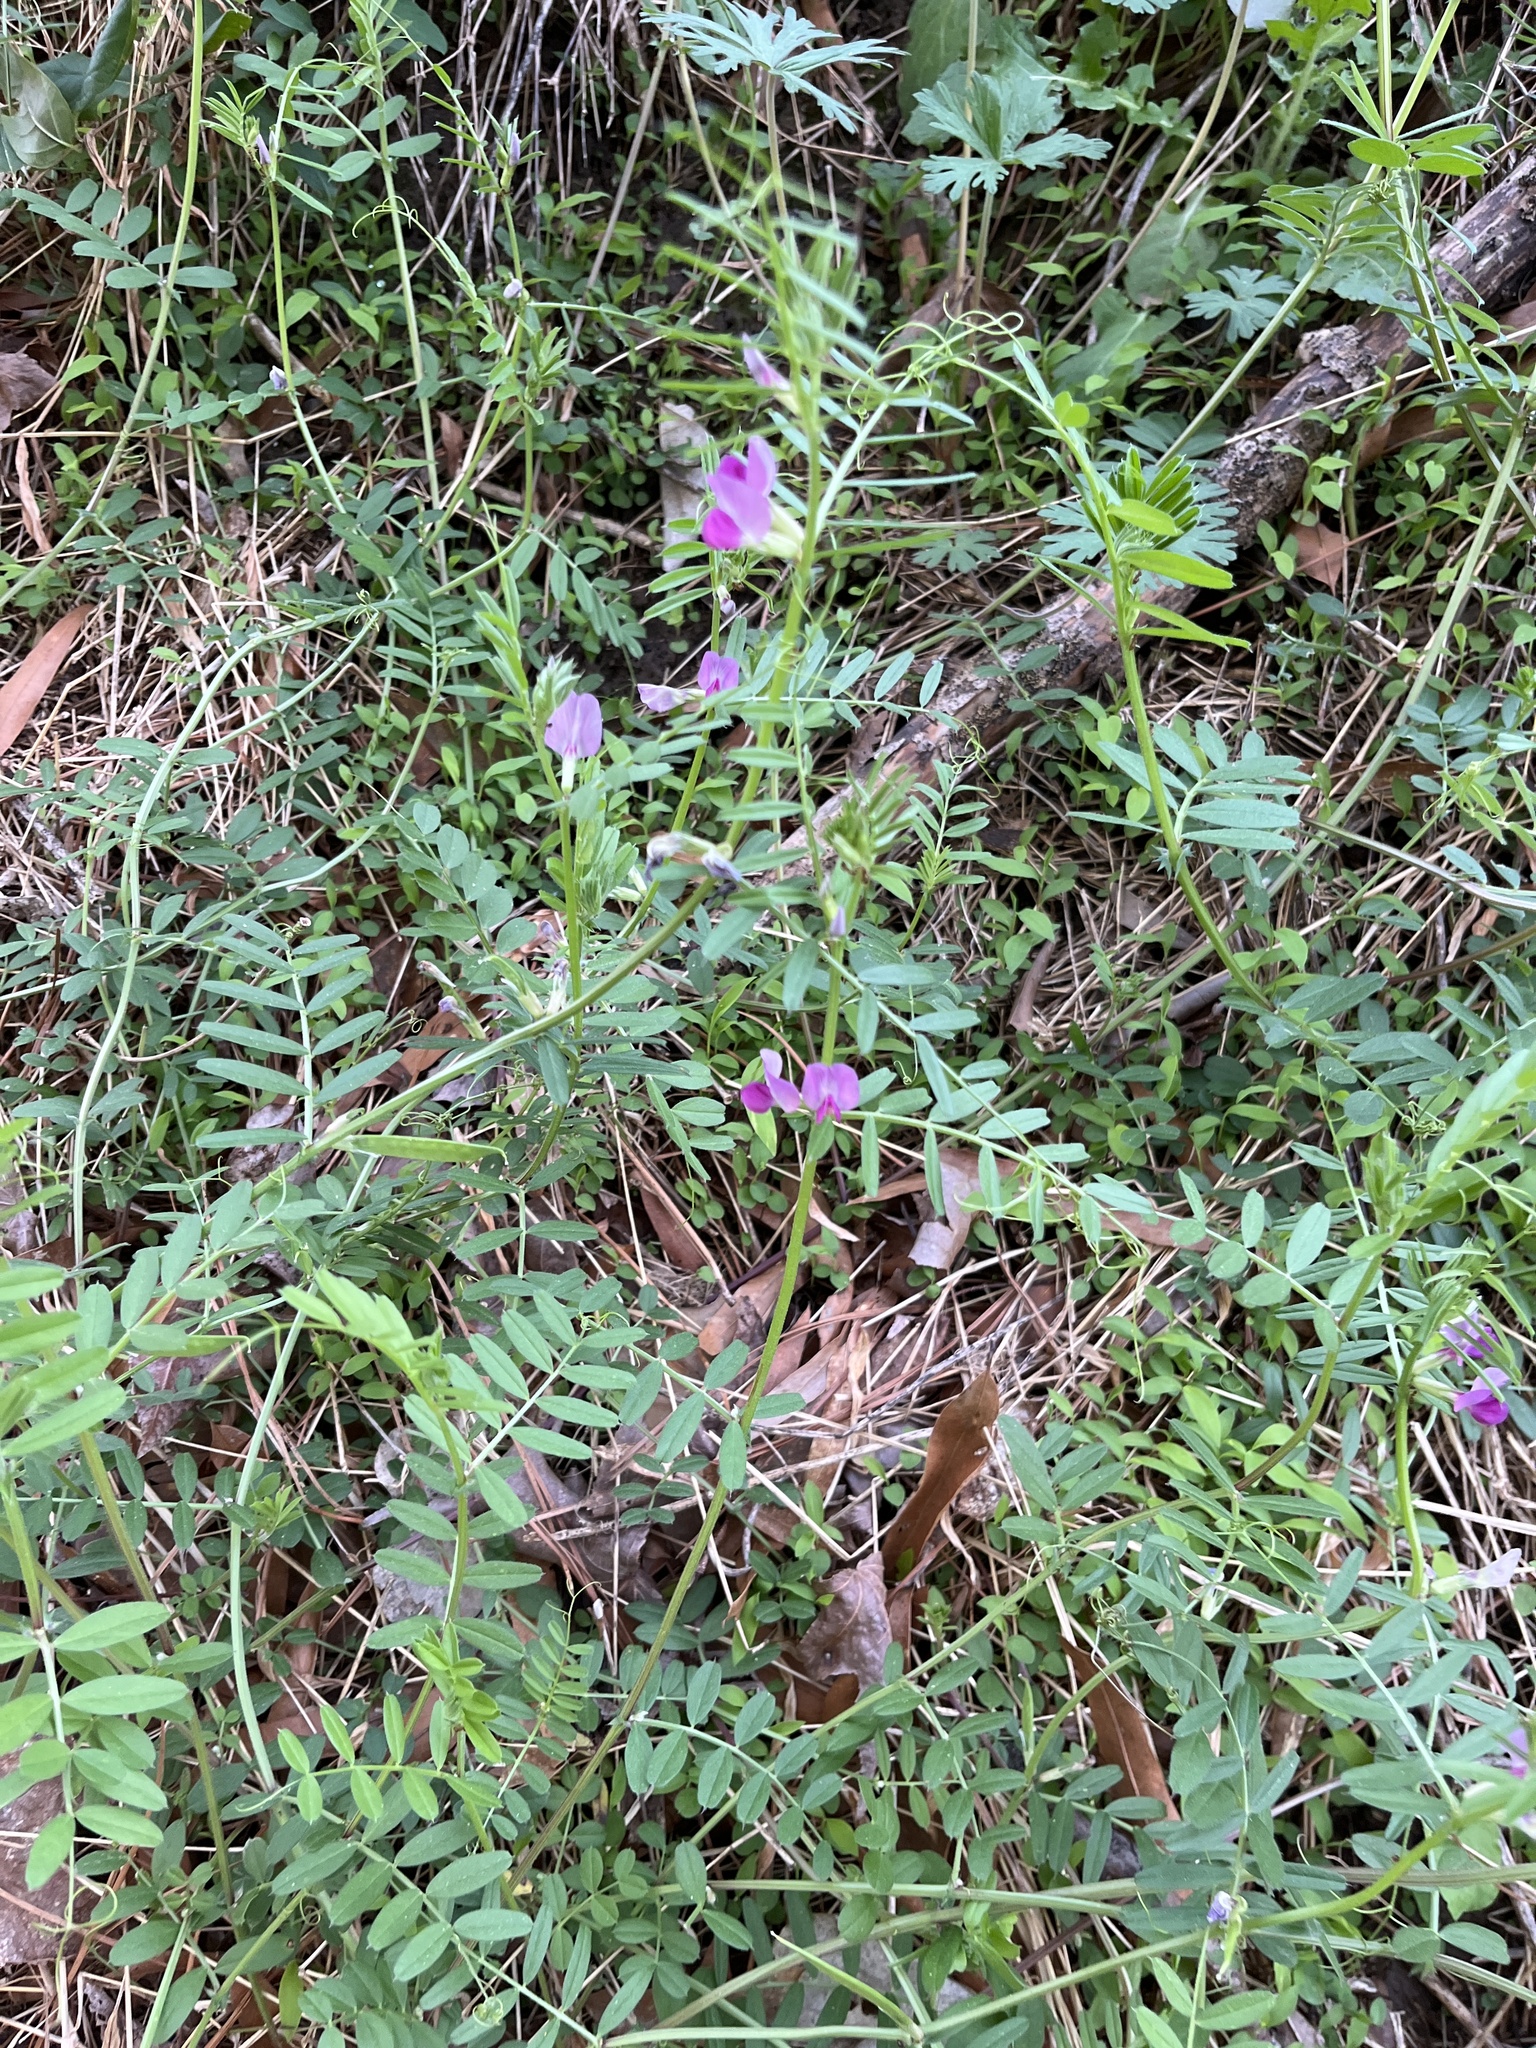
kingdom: Plantae
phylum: Tracheophyta
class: Magnoliopsida
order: Fabales
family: Fabaceae
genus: Vicia
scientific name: Vicia sativa
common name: Garden vetch
